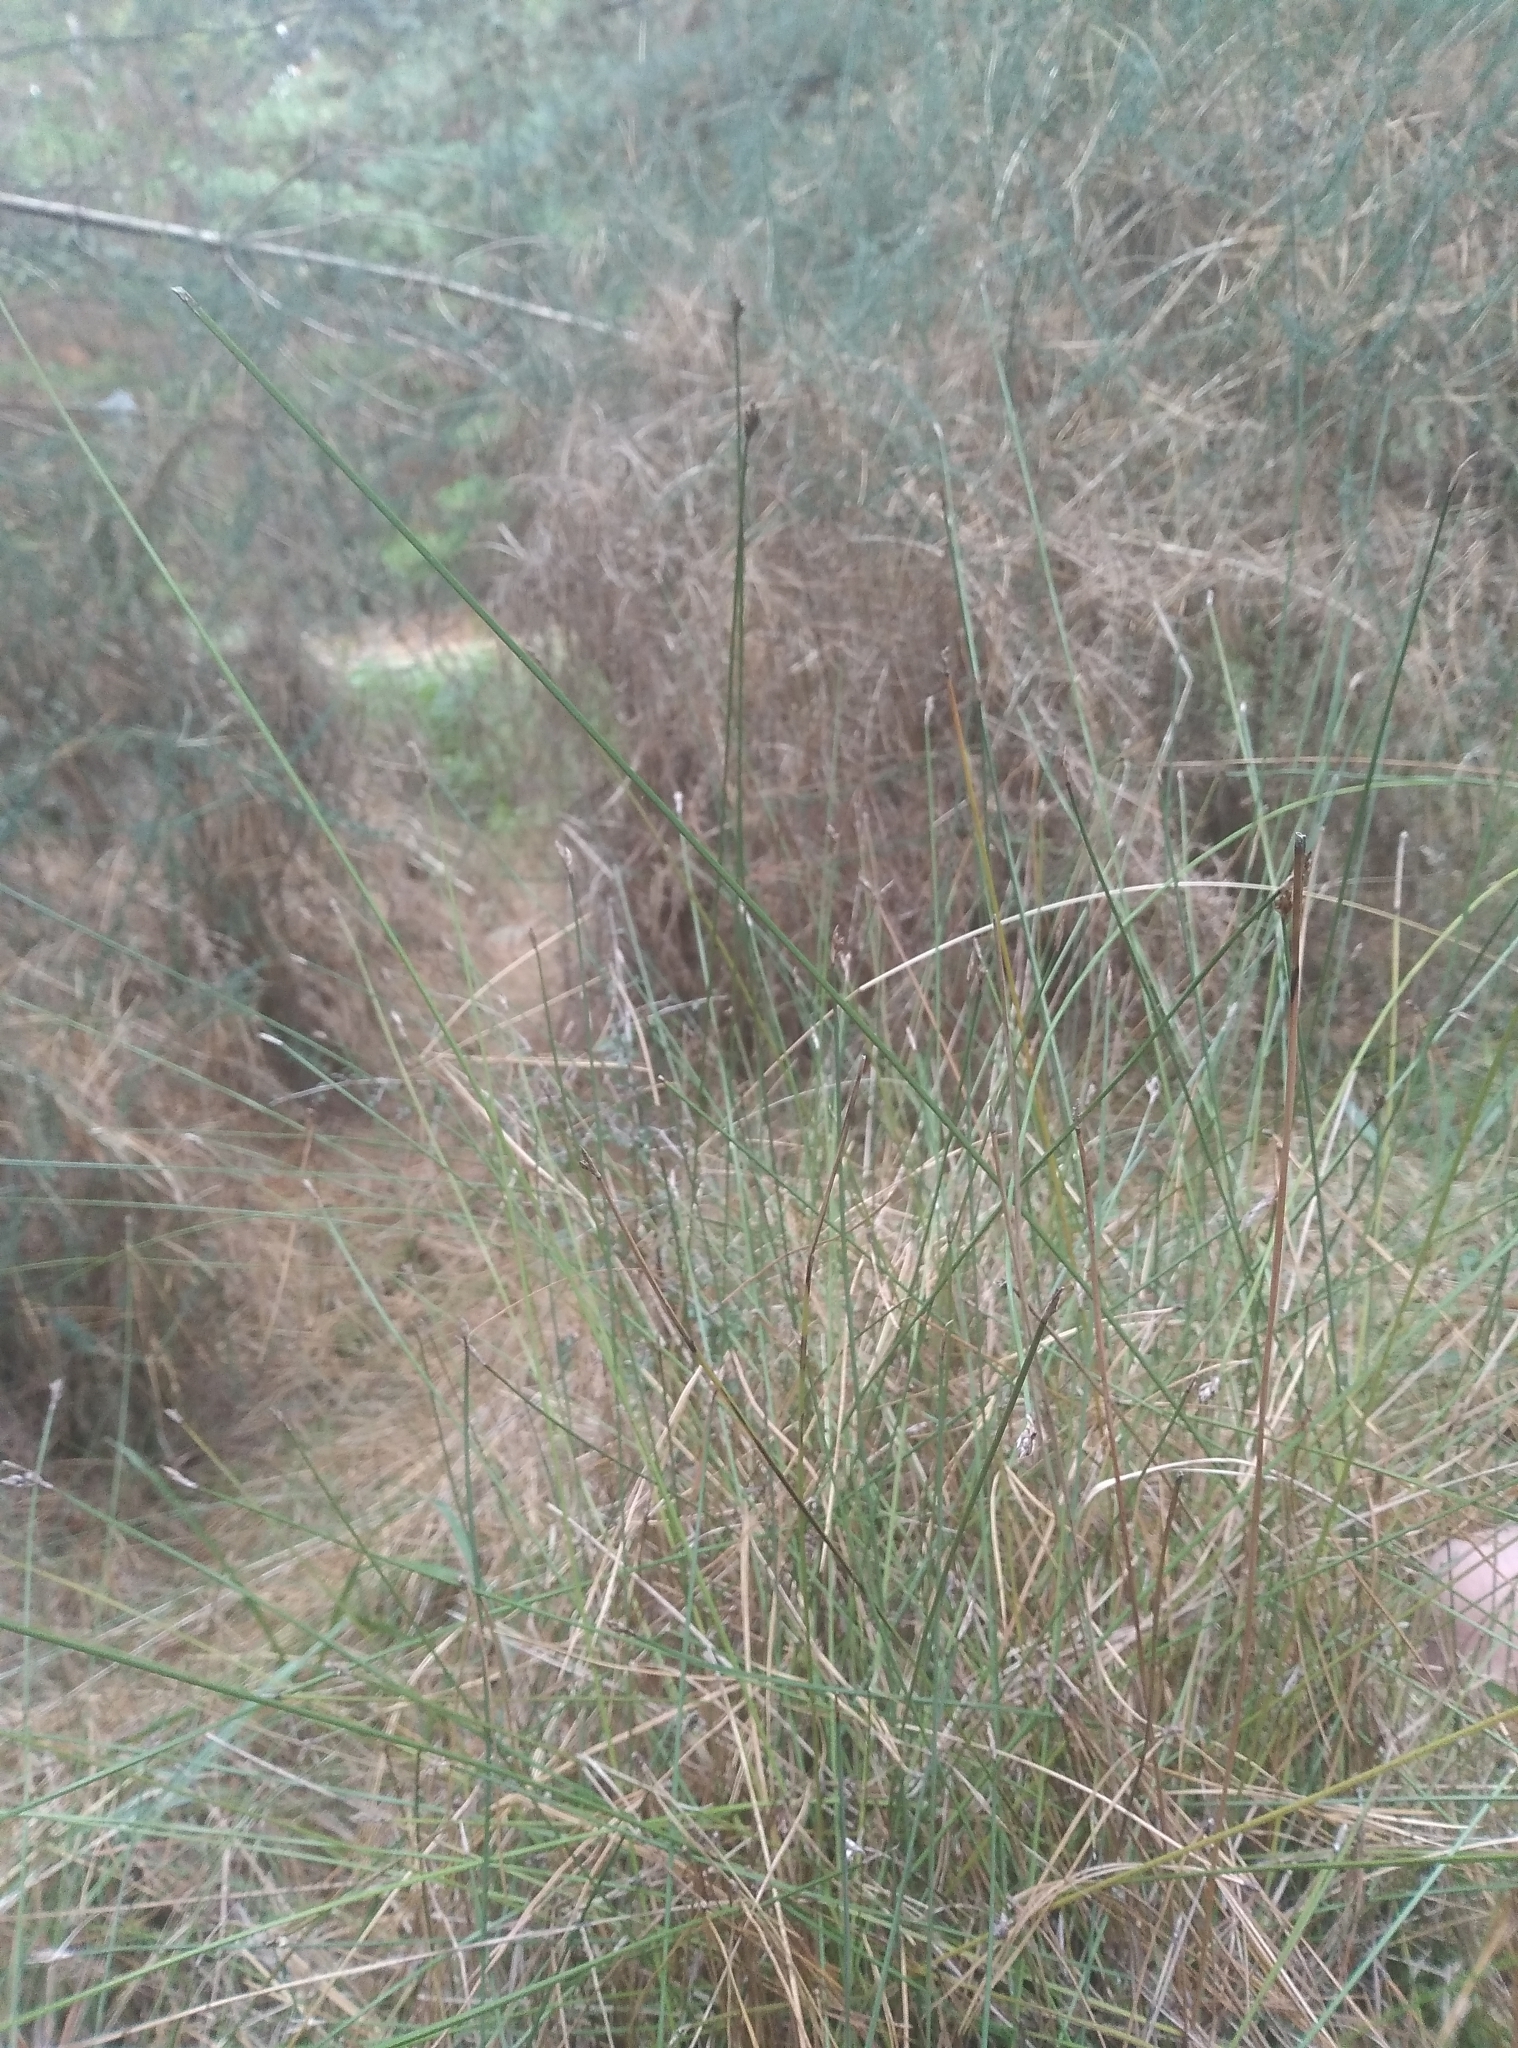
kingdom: Plantae
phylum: Tracheophyta
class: Liliopsida
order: Poales
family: Cyperaceae
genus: Lepidosperma
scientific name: Lepidosperma australe
